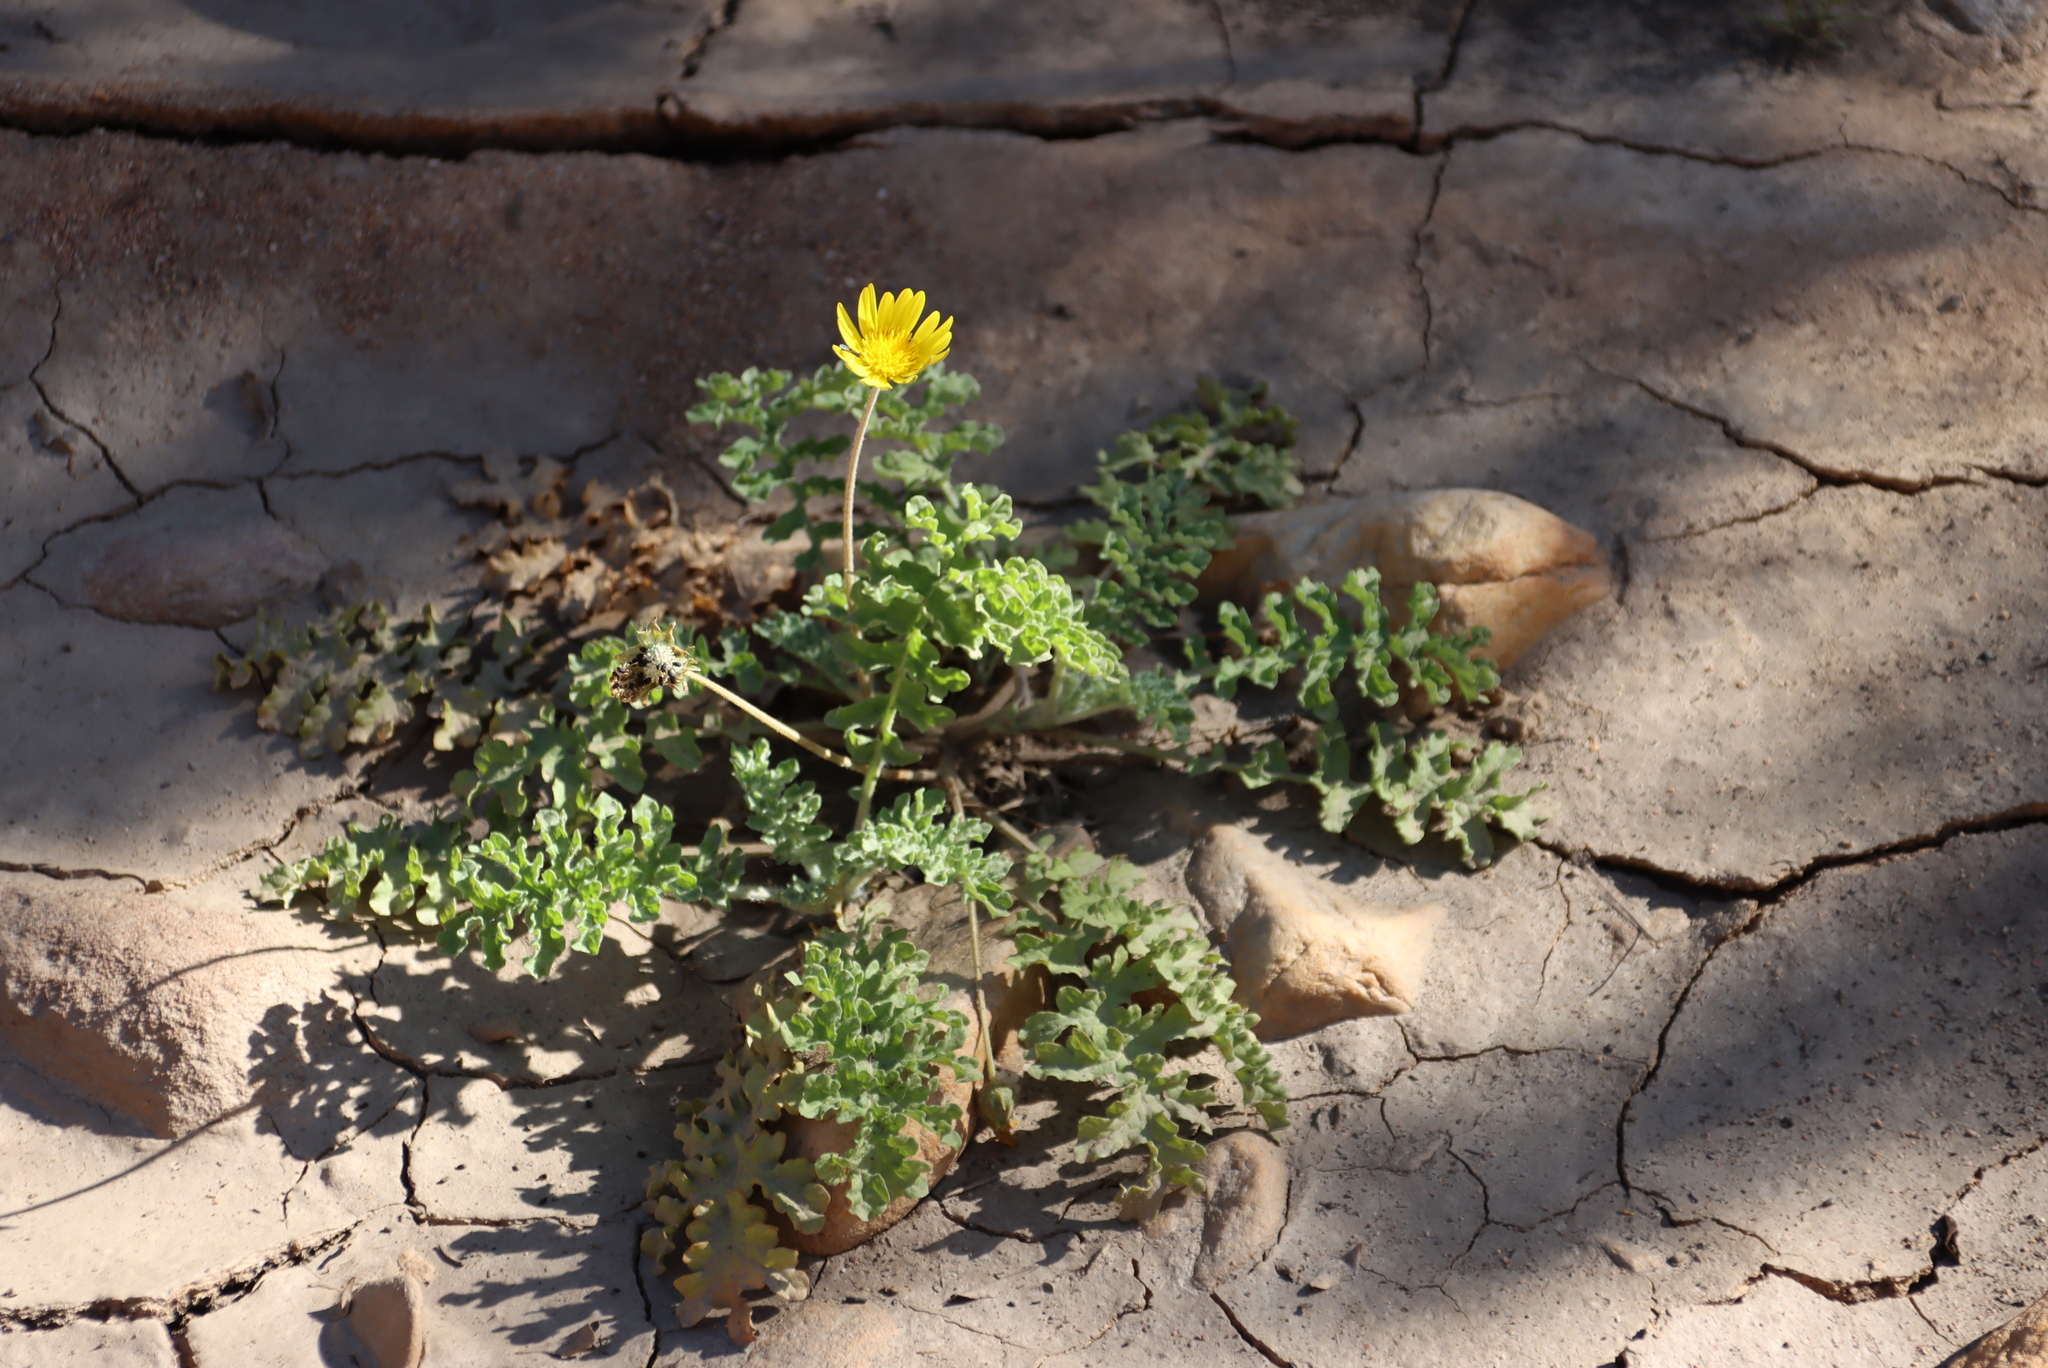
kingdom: Plantae
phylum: Tracheophyta
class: Magnoliopsida
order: Asterales
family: Asteraceae
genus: Arctotheca
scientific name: Arctotheca prostrata
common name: Capeweed
